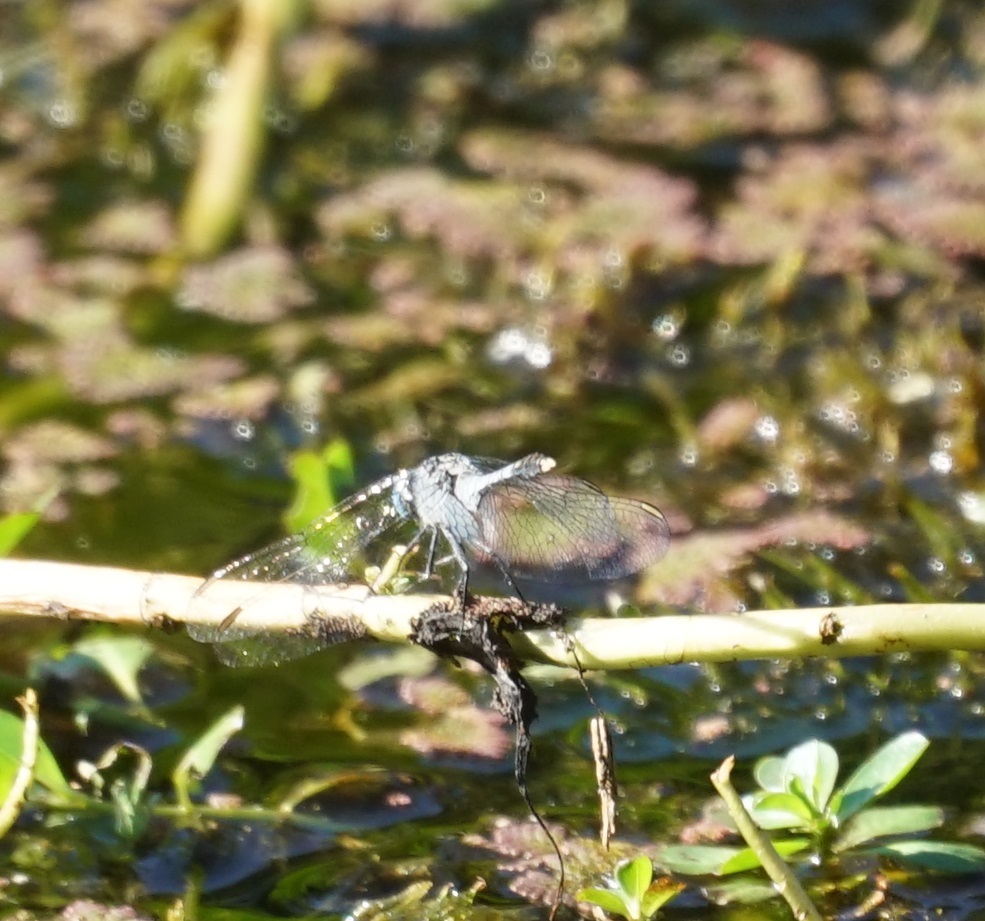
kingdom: Animalia
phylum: Arthropoda
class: Insecta
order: Odonata
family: Libellulidae
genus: Diplacodes
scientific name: Diplacodes trivialis
